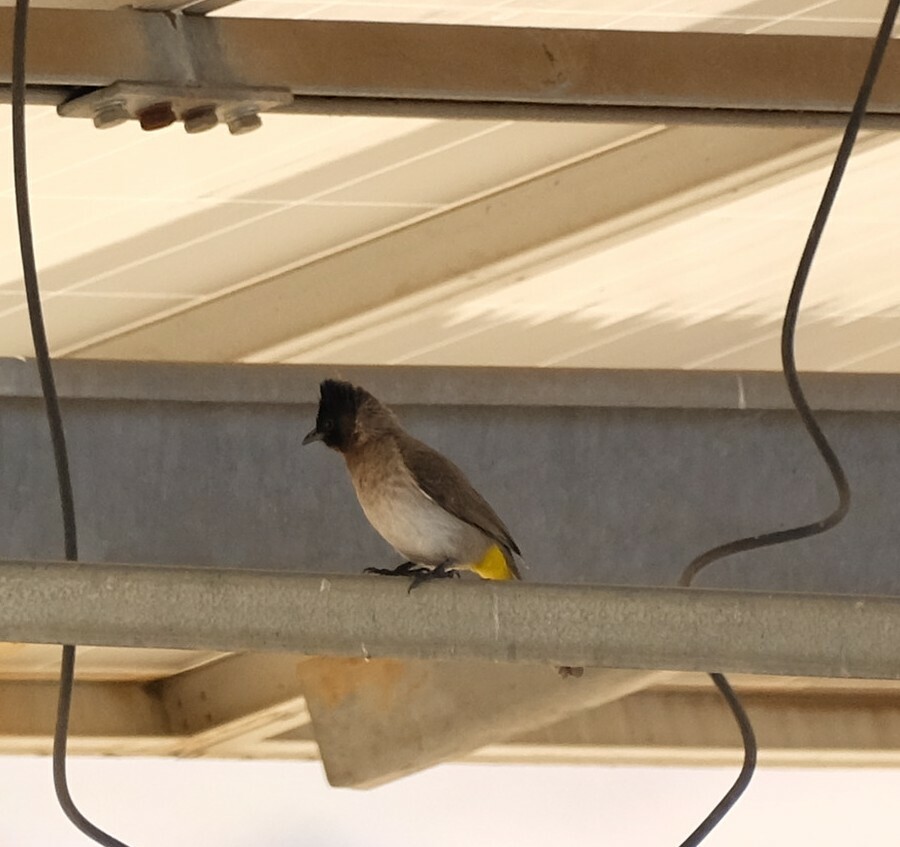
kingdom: Animalia
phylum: Chordata
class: Aves
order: Passeriformes
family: Pycnonotidae
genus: Pycnonotus
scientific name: Pycnonotus barbatus
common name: Common bulbul
